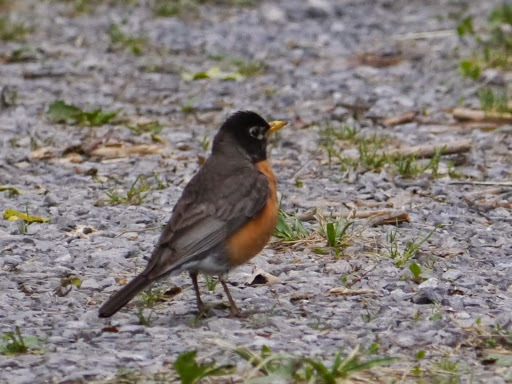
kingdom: Animalia
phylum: Chordata
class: Aves
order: Passeriformes
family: Turdidae
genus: Turdus
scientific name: Turdus migratorius
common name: American robin
